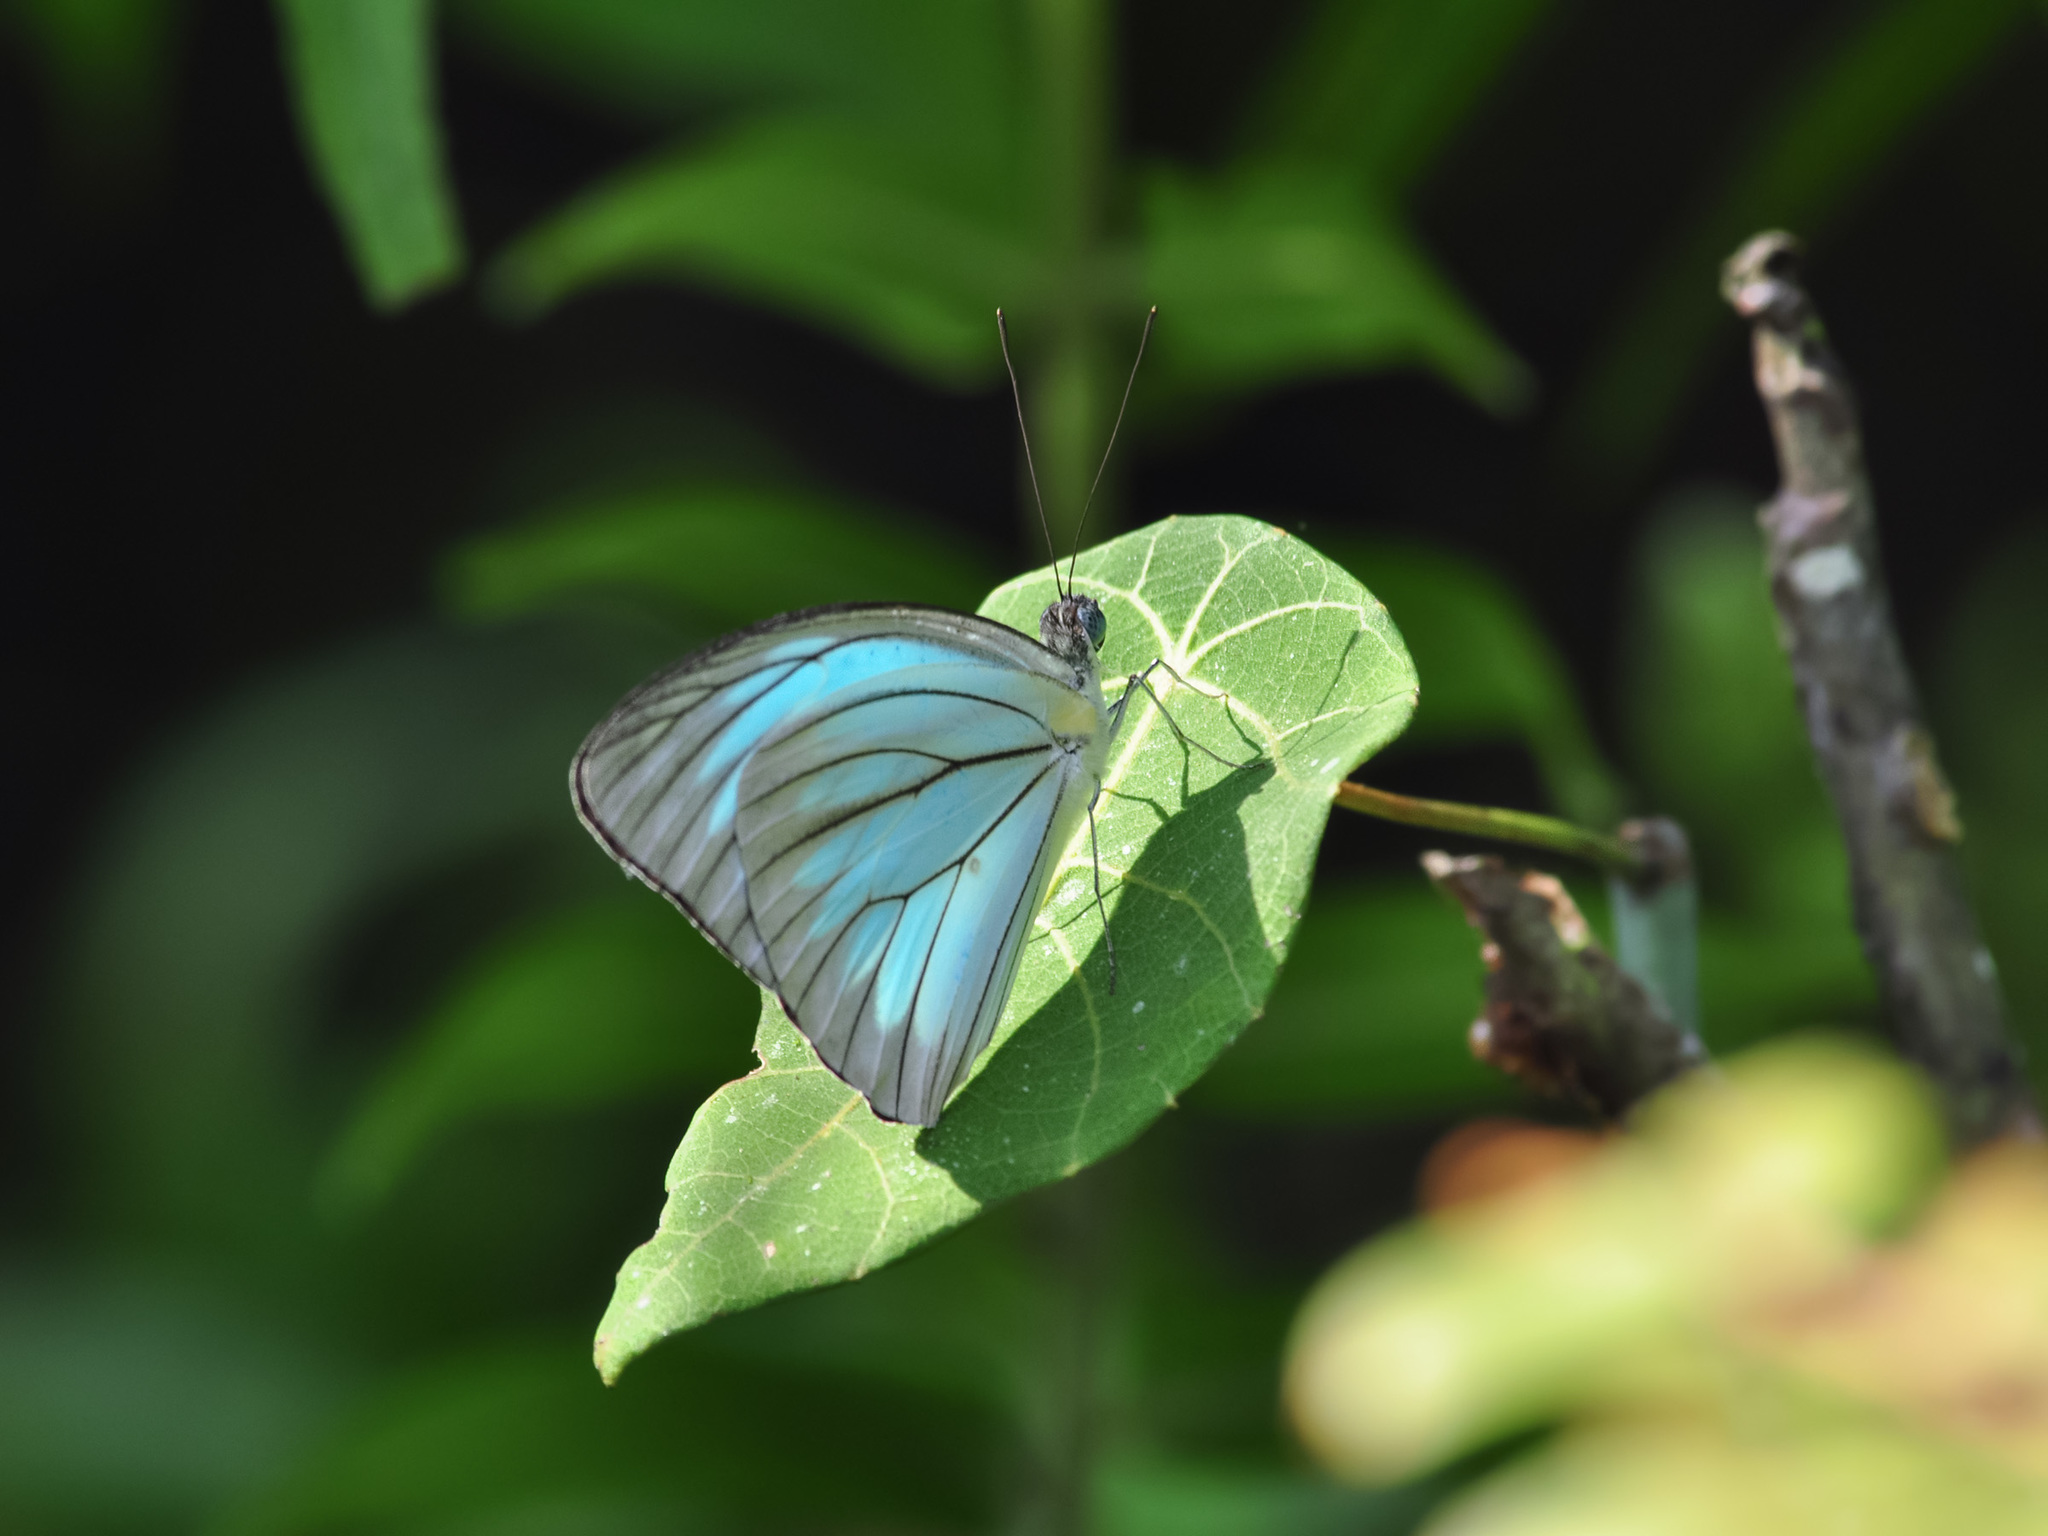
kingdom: Animalia
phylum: Arthropoda
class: Insecta
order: Lepidoptera
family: Pieridae
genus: Pareronia
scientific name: Pareronia valeria
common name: Common wanderer?
